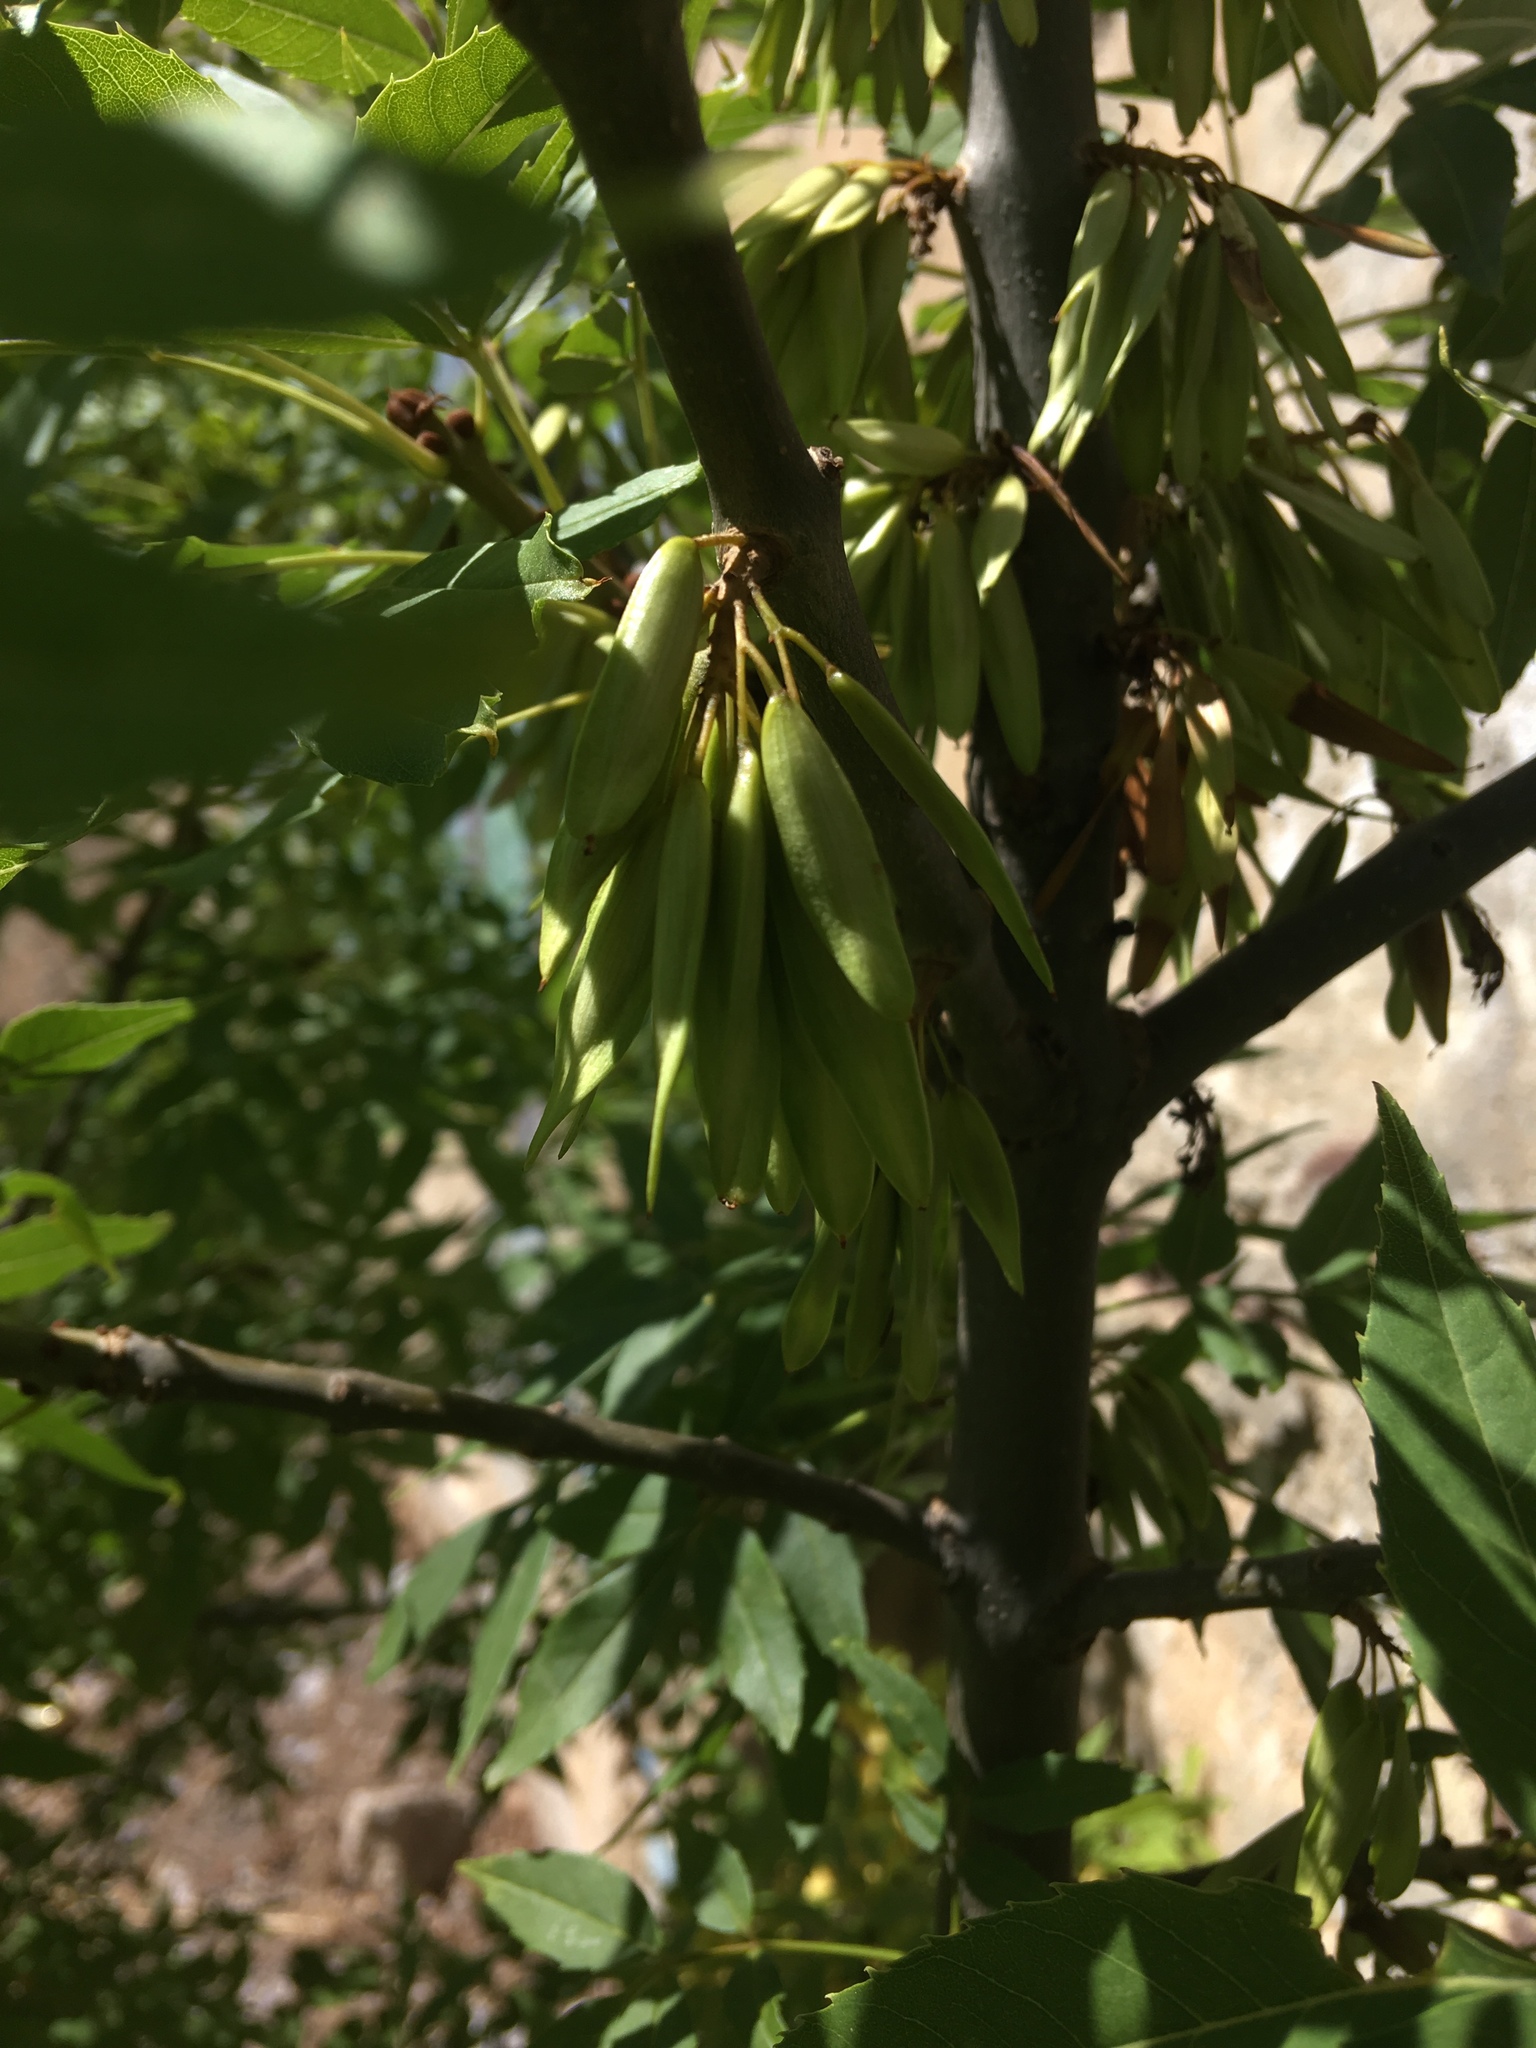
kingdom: Plantae
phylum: Tracheophyta
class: Magnoliopsida
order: Lamiales
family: Oleaceae
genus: Fraxinus
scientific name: Fraxinus angustifolia
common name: Narrow-leafed ash
